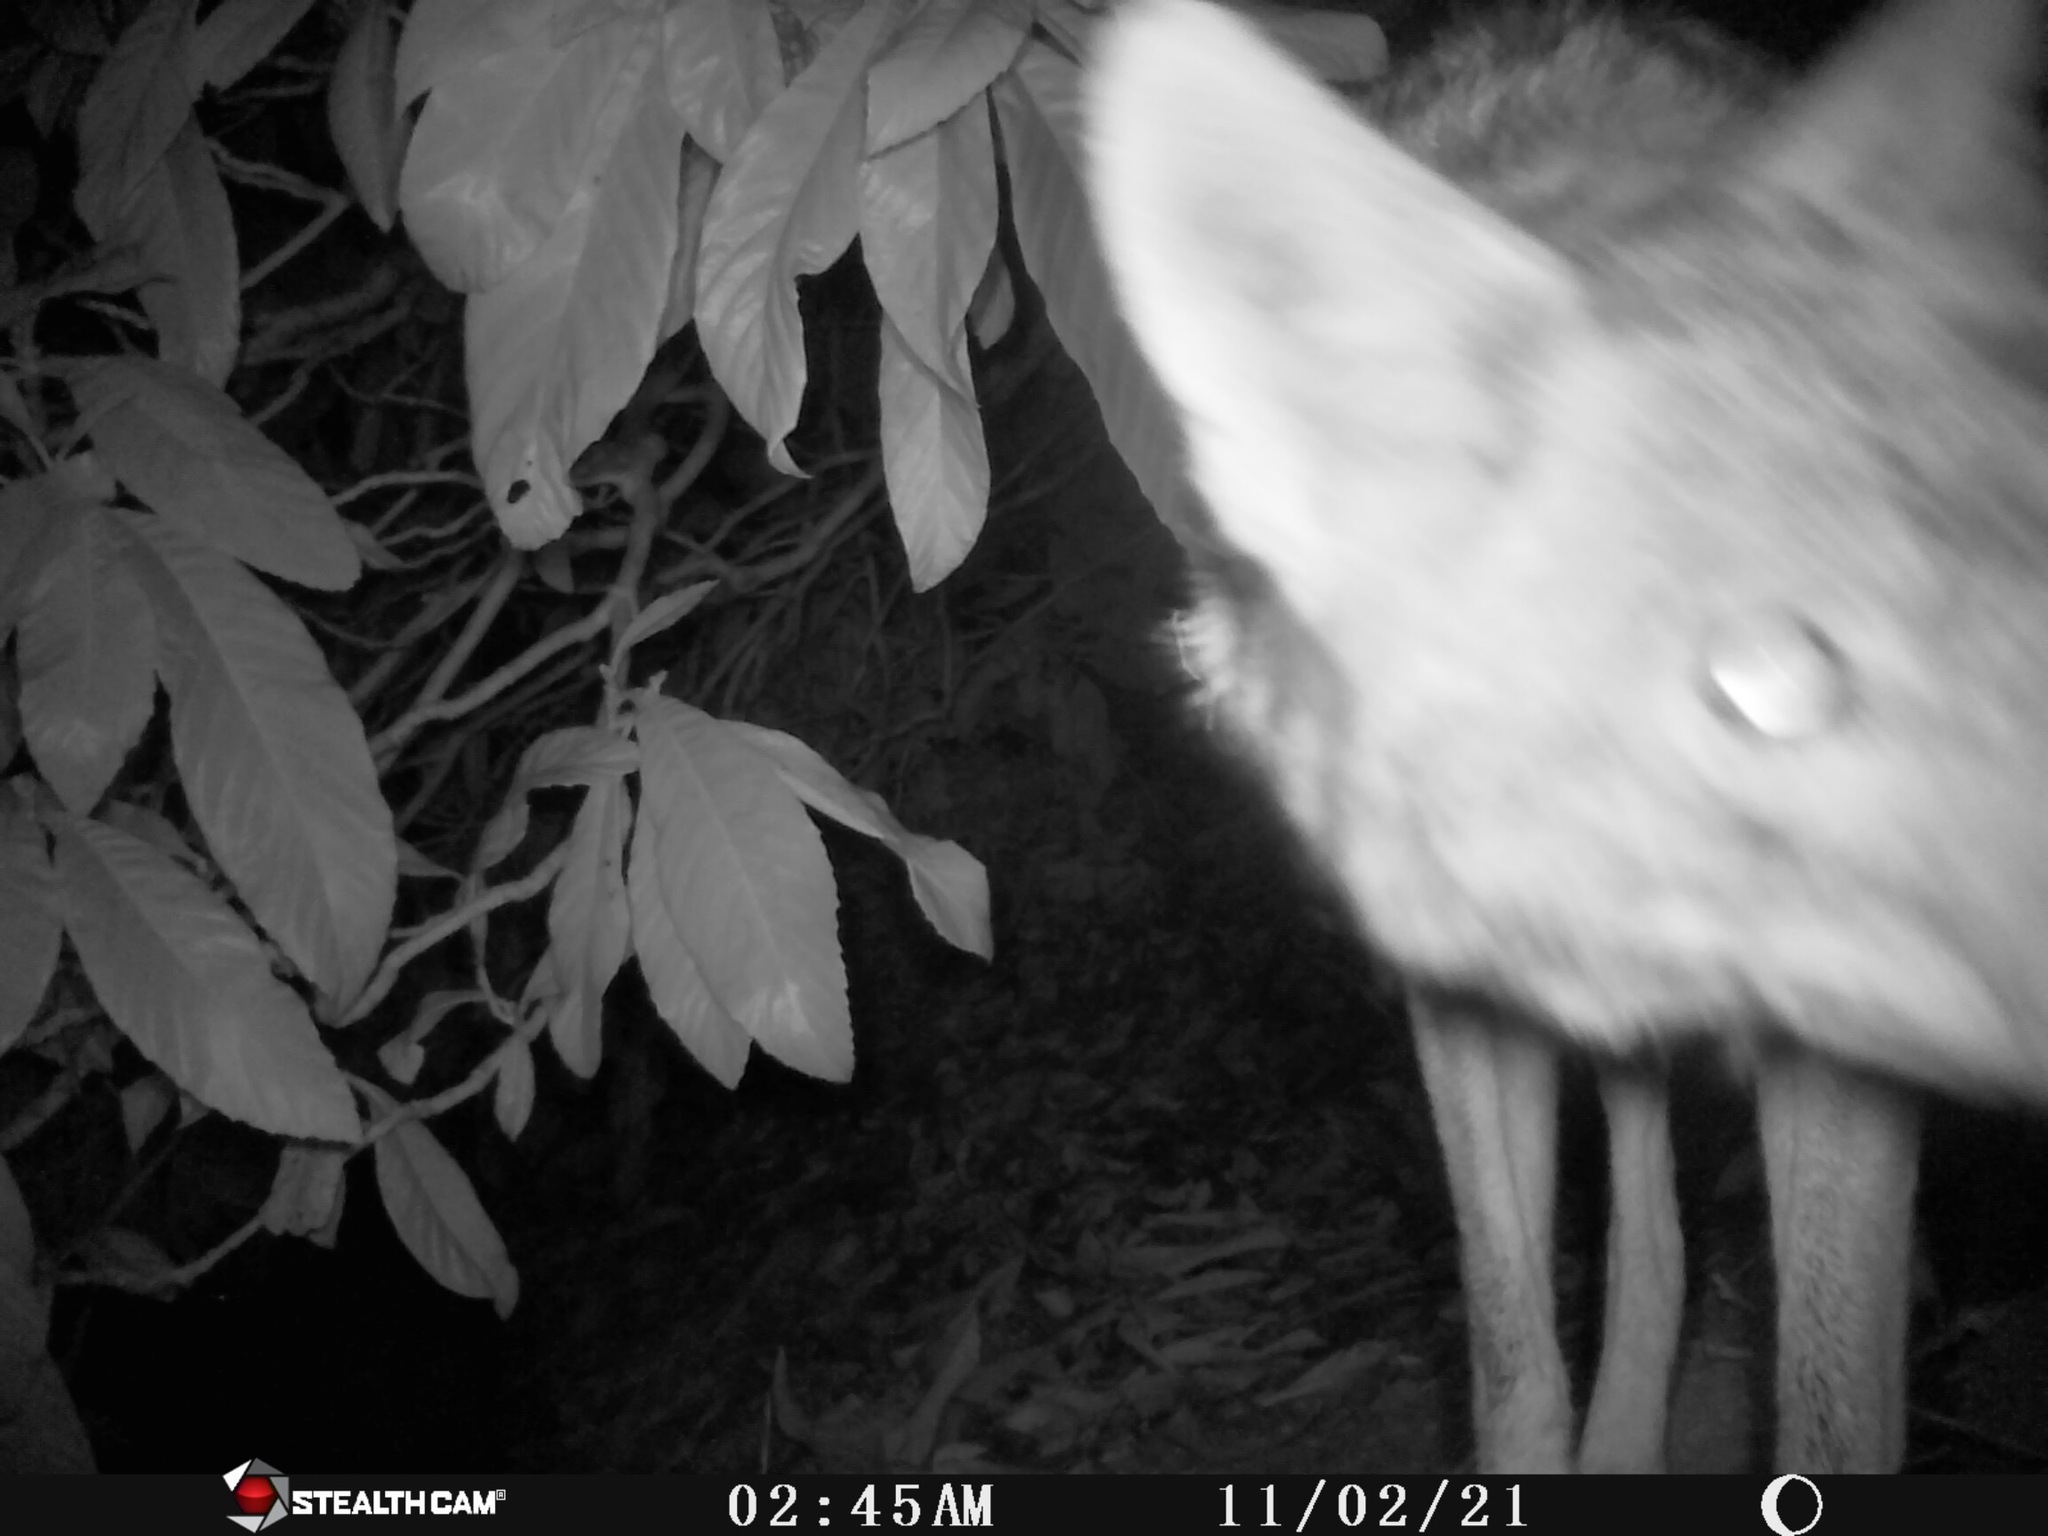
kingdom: Animalia
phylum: Chordata
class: Mammalia
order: Carnivora
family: Canidae
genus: Canis
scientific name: Canis latrans
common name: Coyote
